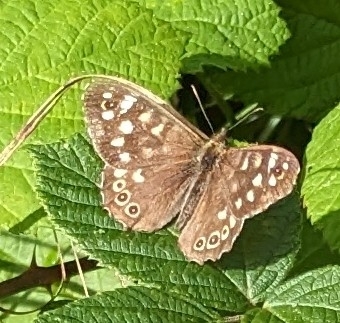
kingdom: Animalia
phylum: Arthropoda
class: Insecta
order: Lepidoptera
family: Nymphalidae
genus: Pararge
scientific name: Pararge aegeria
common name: Speckled wood
